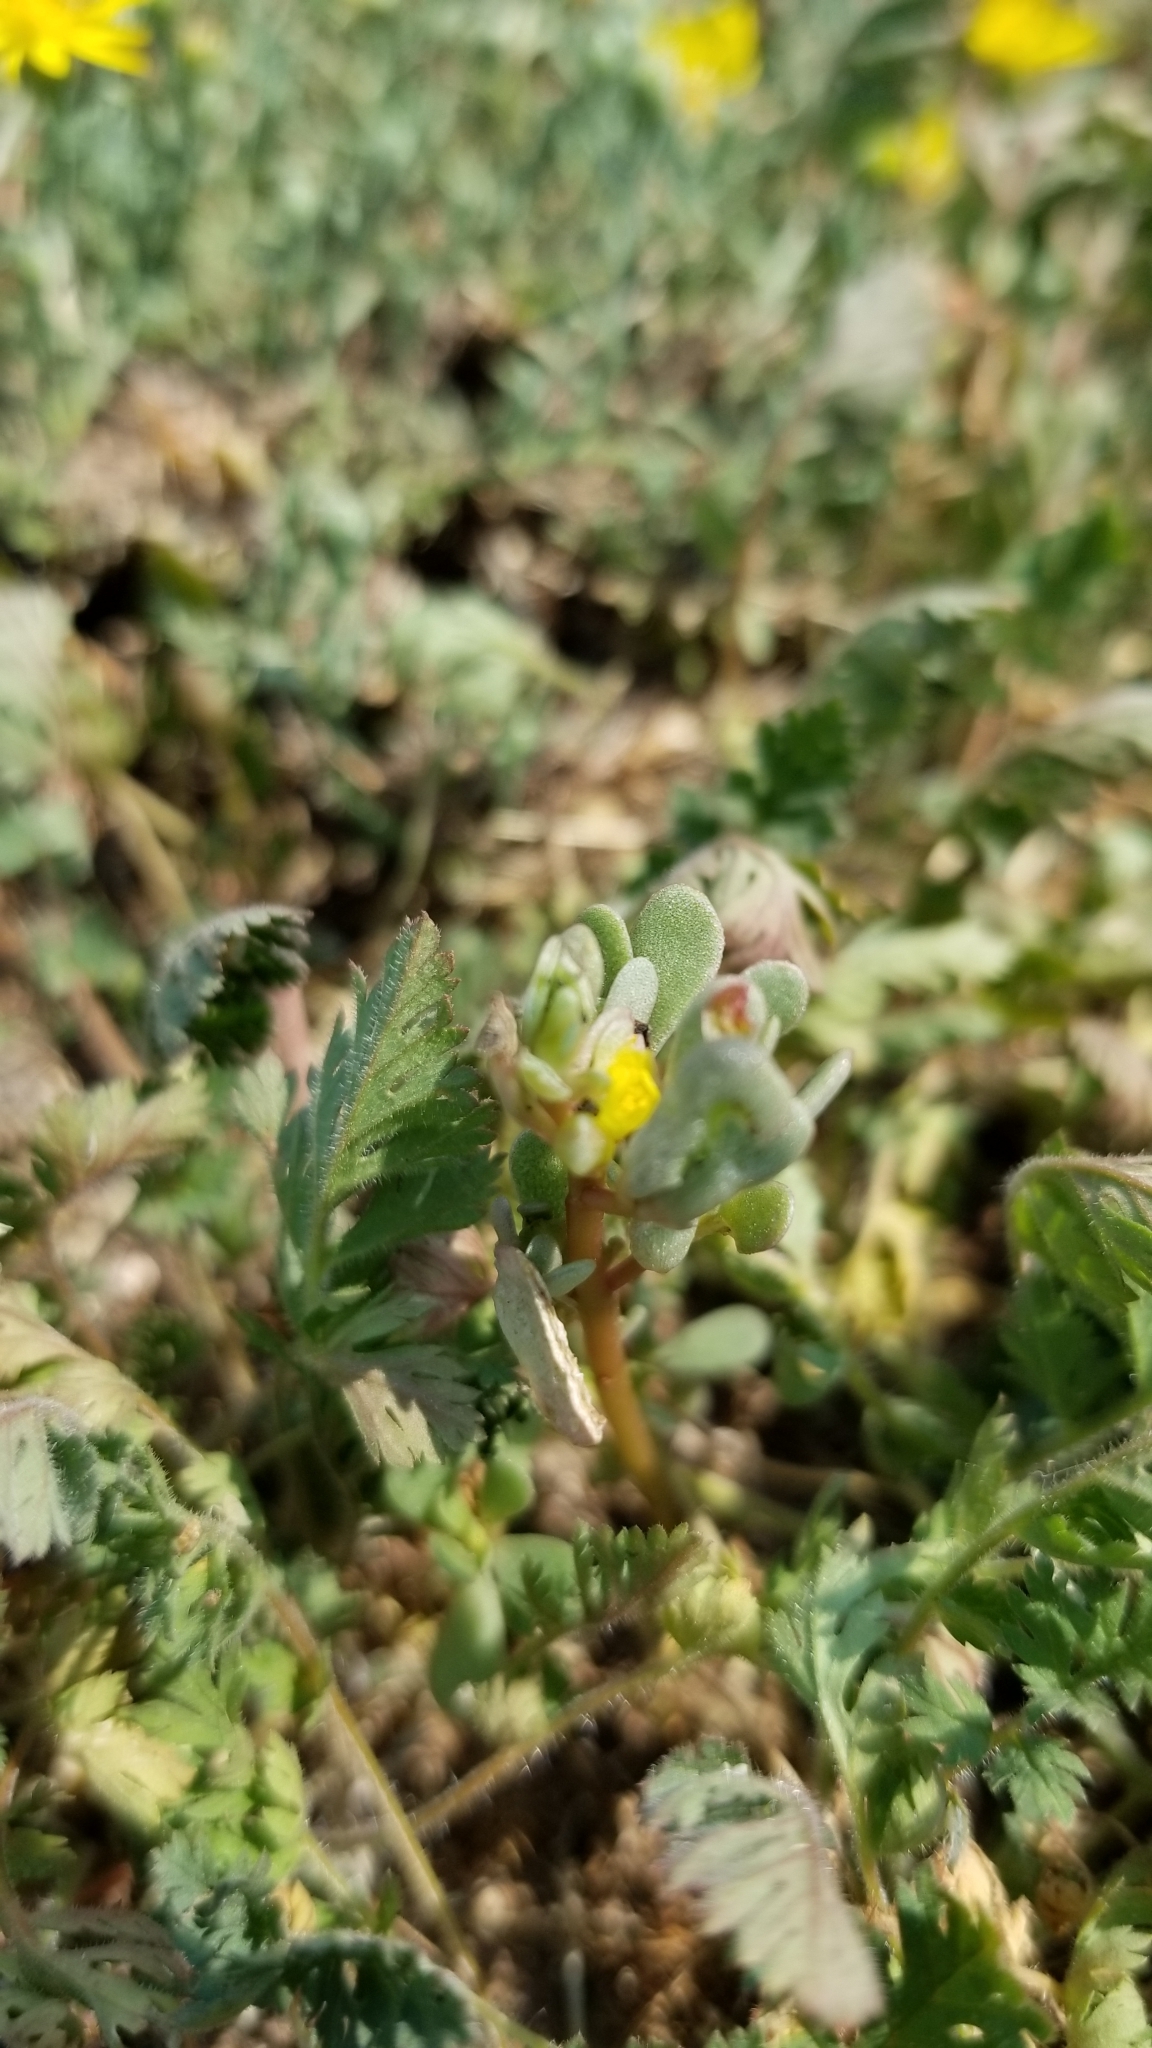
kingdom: Plantae
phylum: Tracheophyta
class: Magnoliopsida
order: Caryophyllales
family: Portulacaceae
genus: Portulaca
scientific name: Portulaca oleracea
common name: Common purslane
